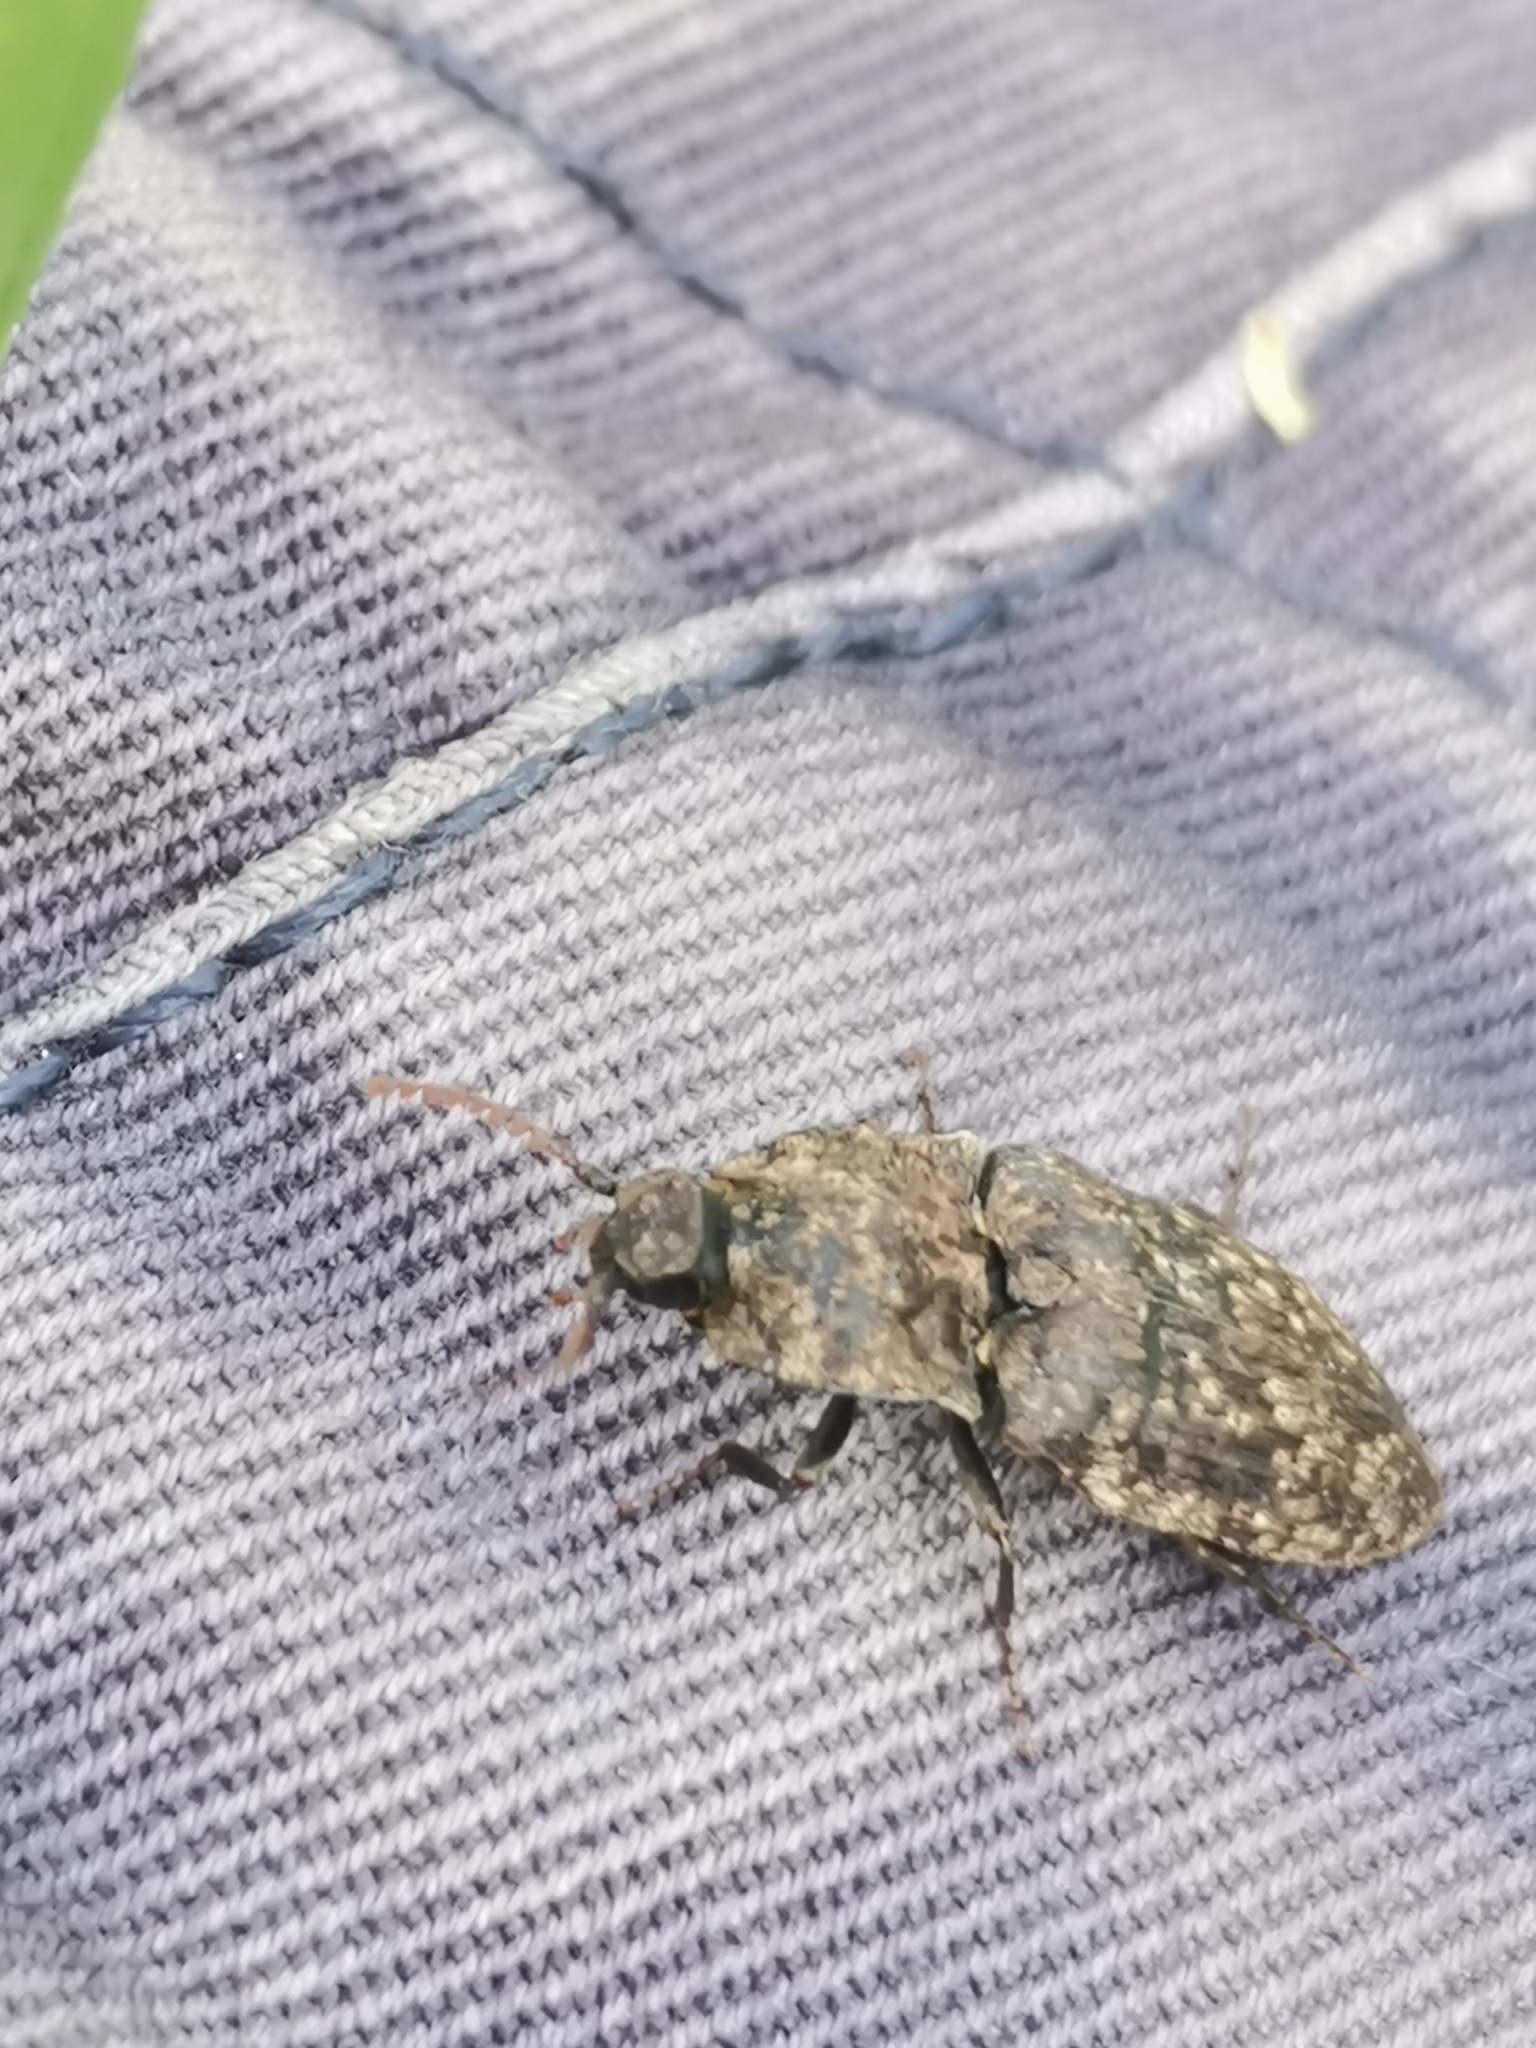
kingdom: Animalia
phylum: Arthropoda
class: Insecta
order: Coleoptera
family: Elateridae
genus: Agrypnus
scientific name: Agrypnus murinus
